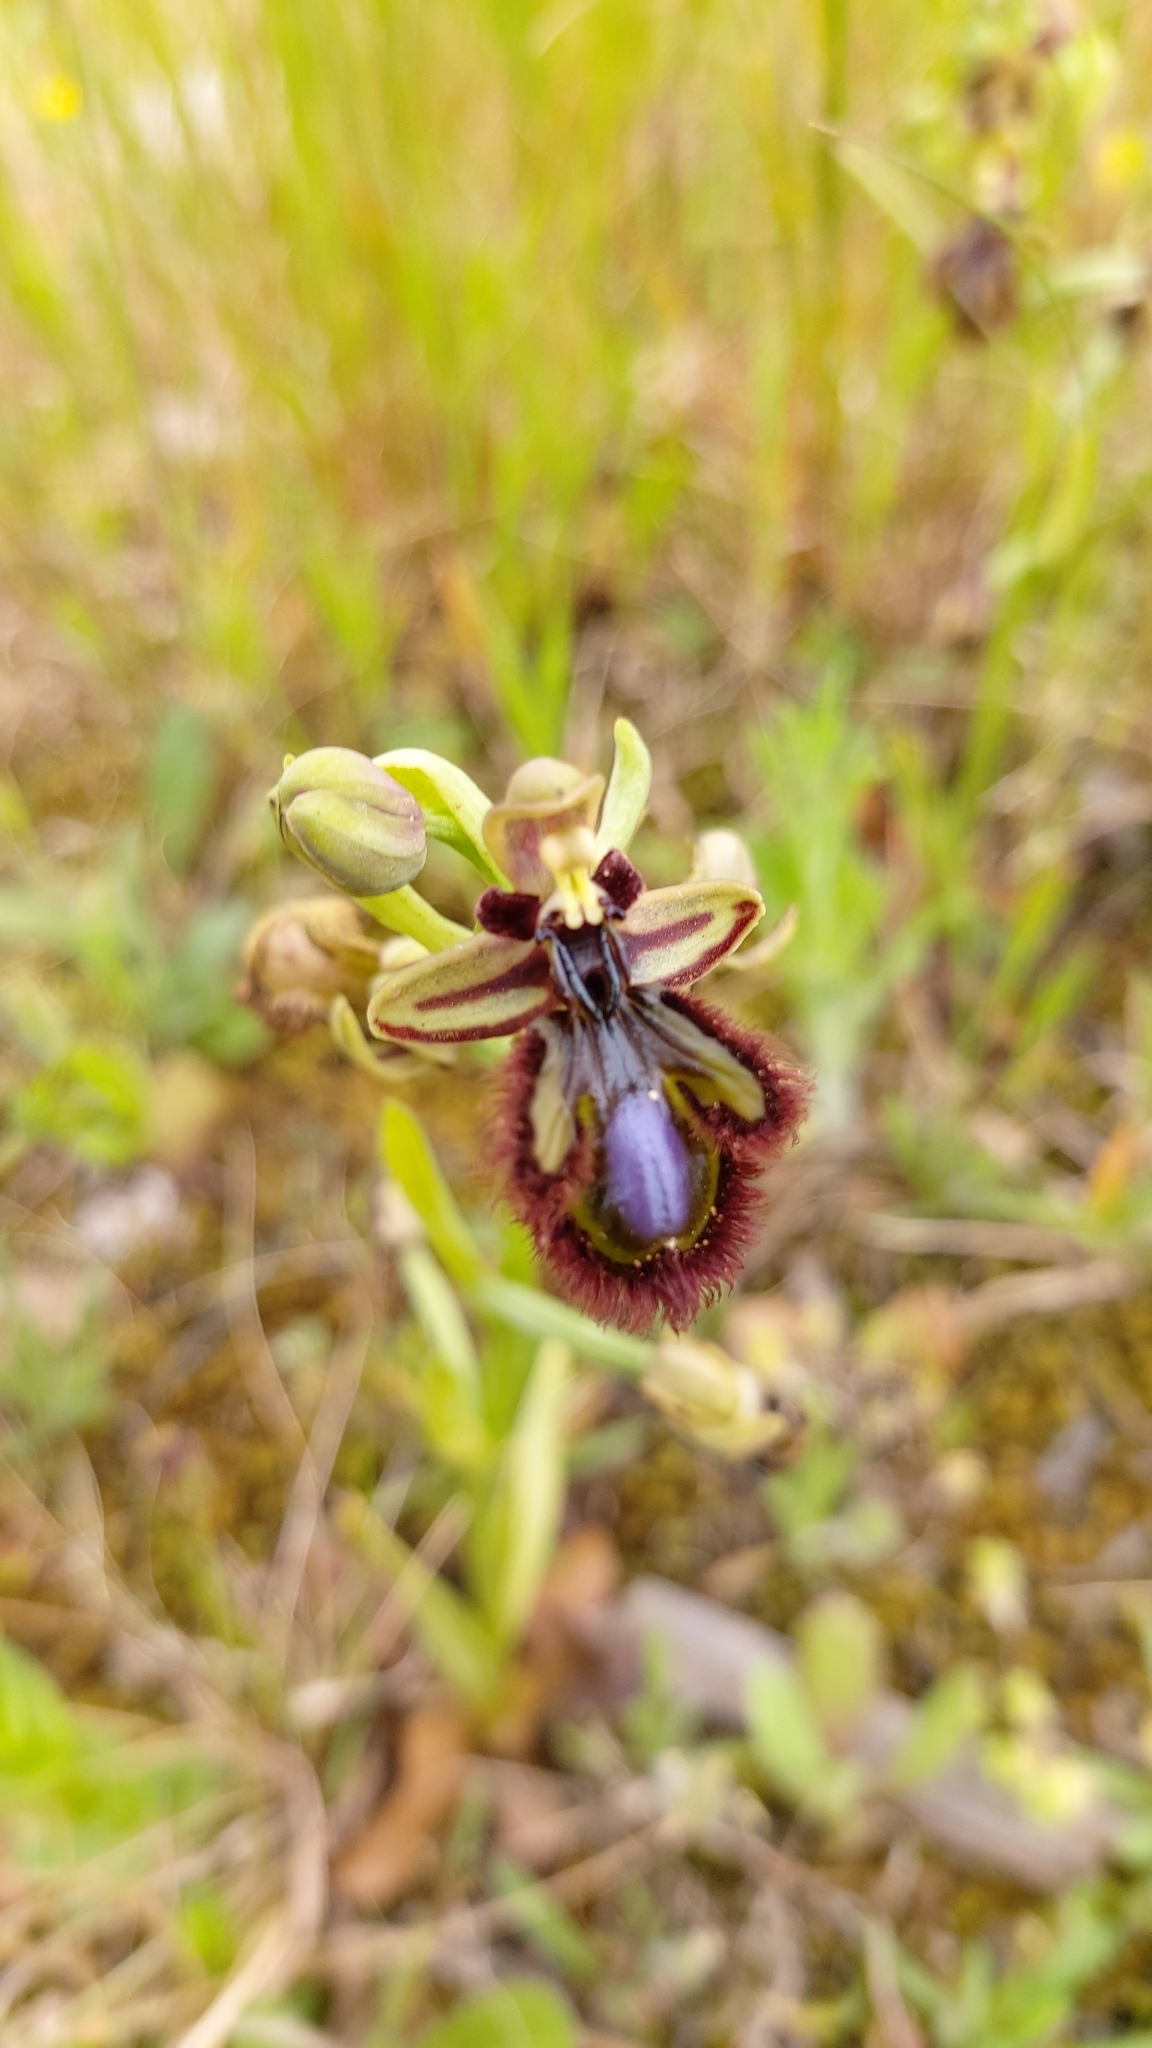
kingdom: Plantae
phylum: Tracheophyta
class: Liliopsida
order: Asparagales
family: Orchidaceae
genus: Ophrys
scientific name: Ophrys speculum
